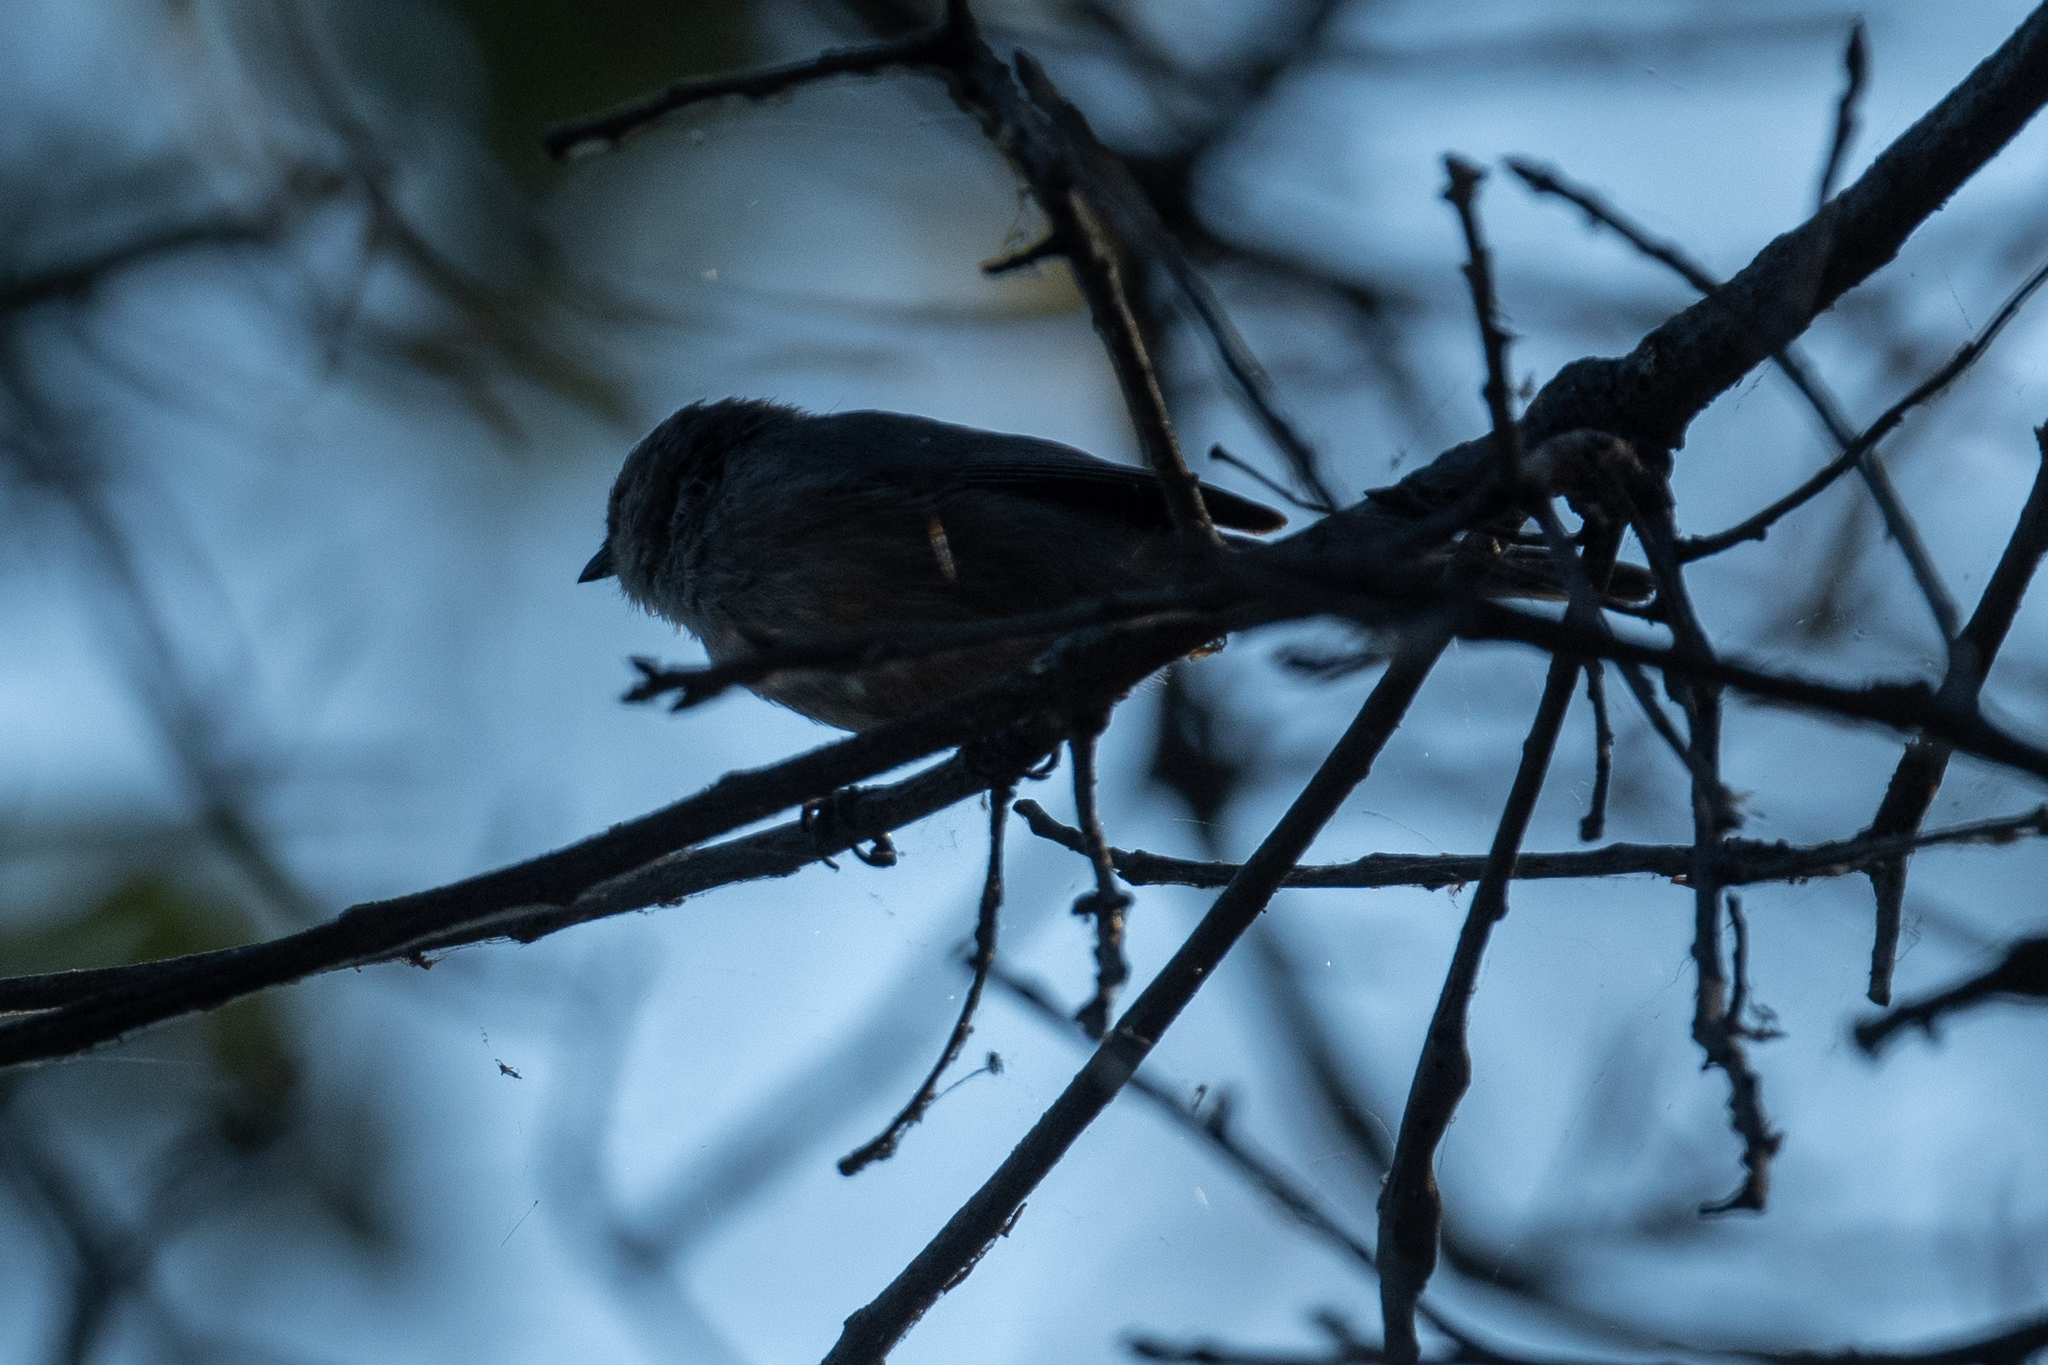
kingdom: Animalia
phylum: Chordata
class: Aves
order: Passeriformes
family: Aegithalidae
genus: Psaltriparus
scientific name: Psaltriparus minimus
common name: American bushtit
